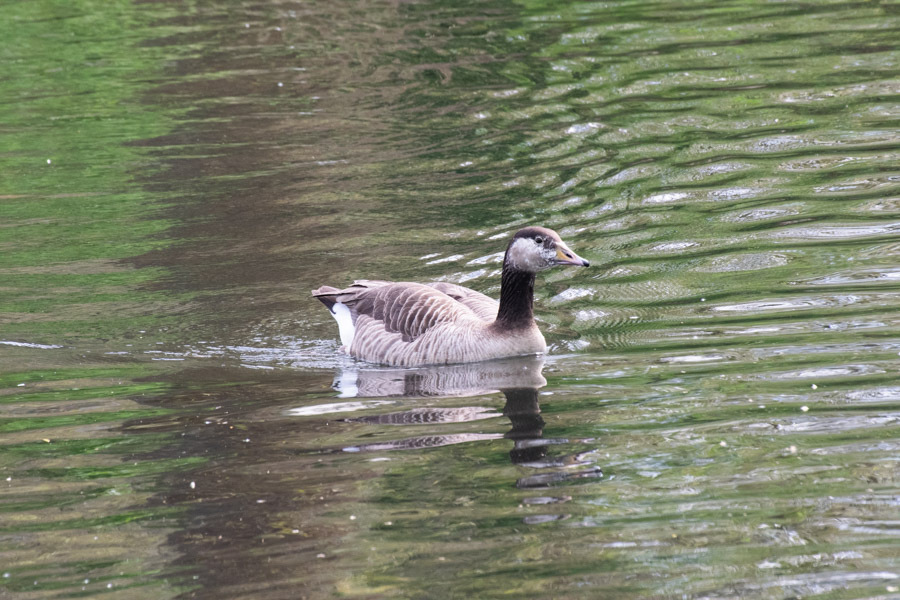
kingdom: Animalia
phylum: Chordata
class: Aves
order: Anseriformes
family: Anatidae
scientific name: Anatidae
